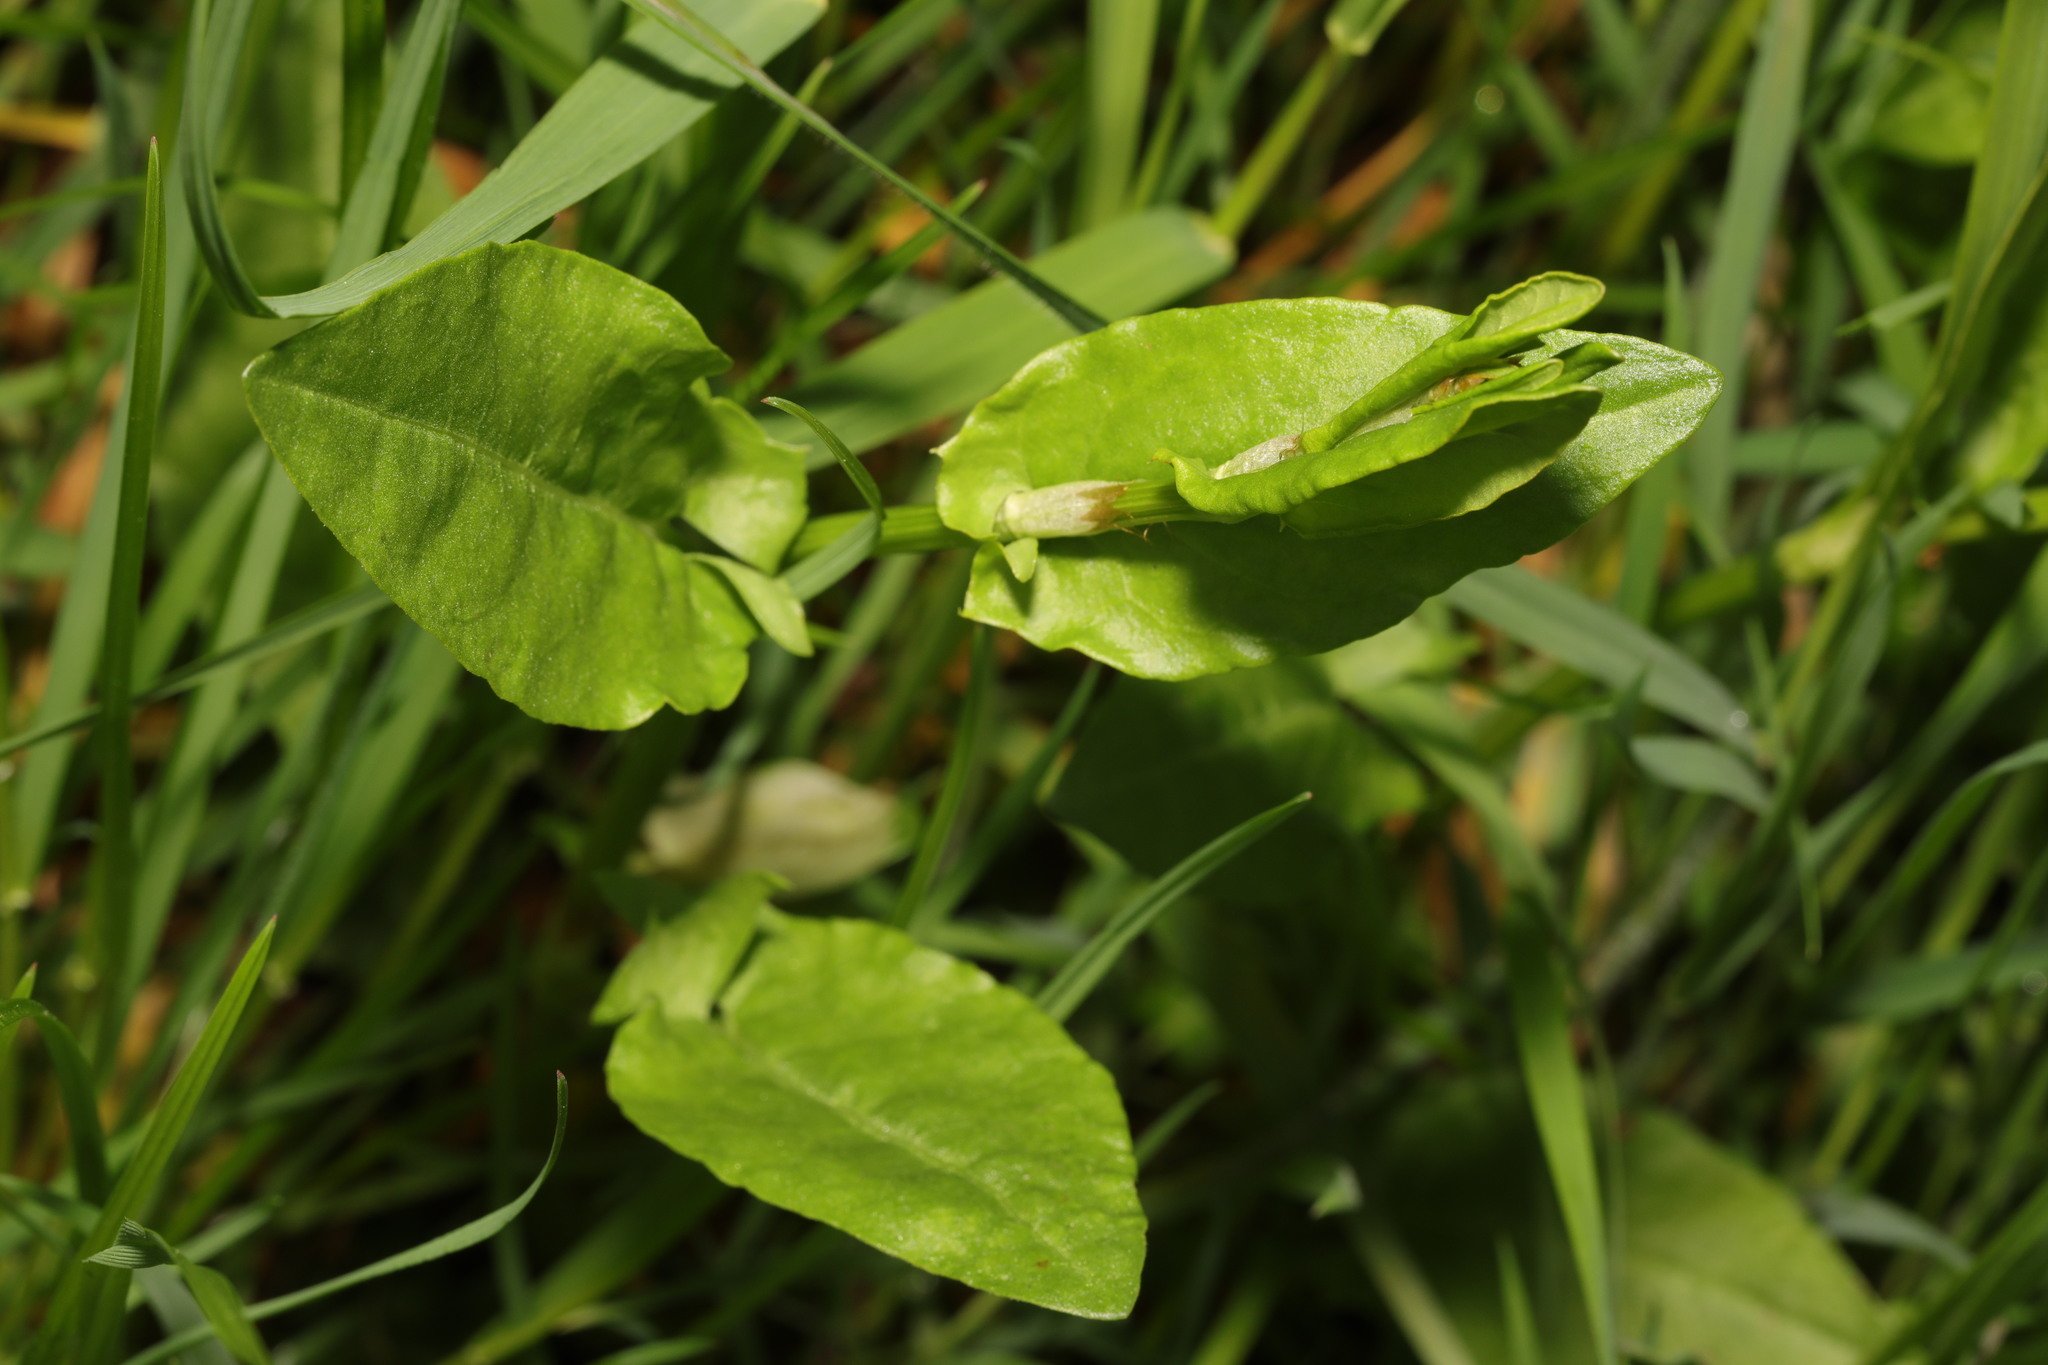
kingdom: Plantae
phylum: Tracheophyta
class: Magnoliopsida
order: Caryophyllales
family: Polygonaceae
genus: Rumex
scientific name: Rumex acetosa
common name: Garden sorrel
